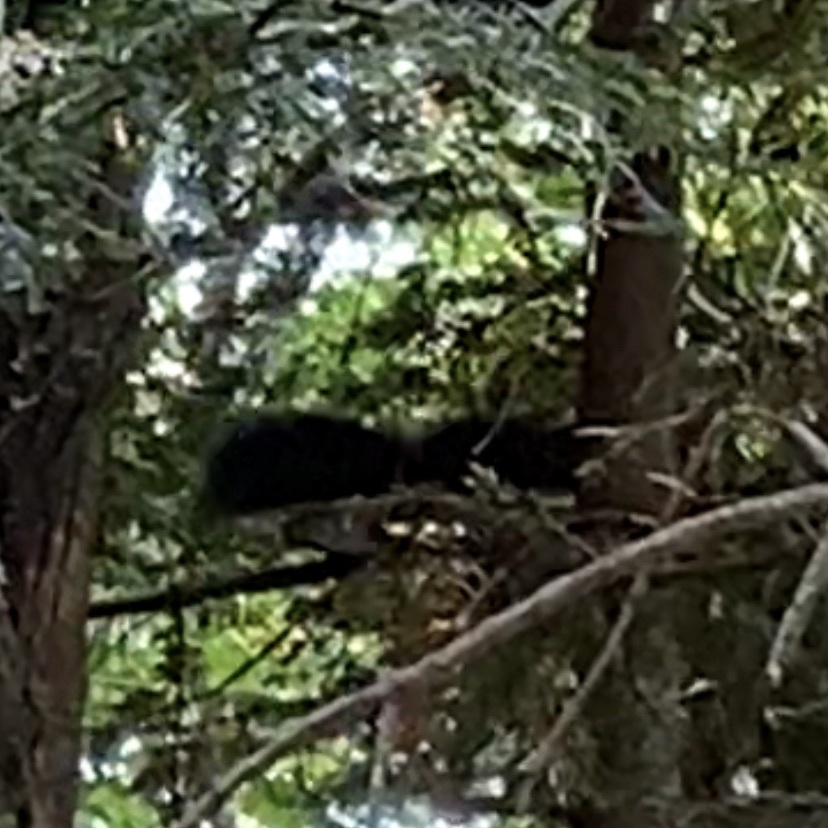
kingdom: Animalia
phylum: Chordata
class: Mammalia
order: Rodentia
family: Sciuridae
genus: Sciurus
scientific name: Sciurus vulgaris
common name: Eurasian red squirrel
